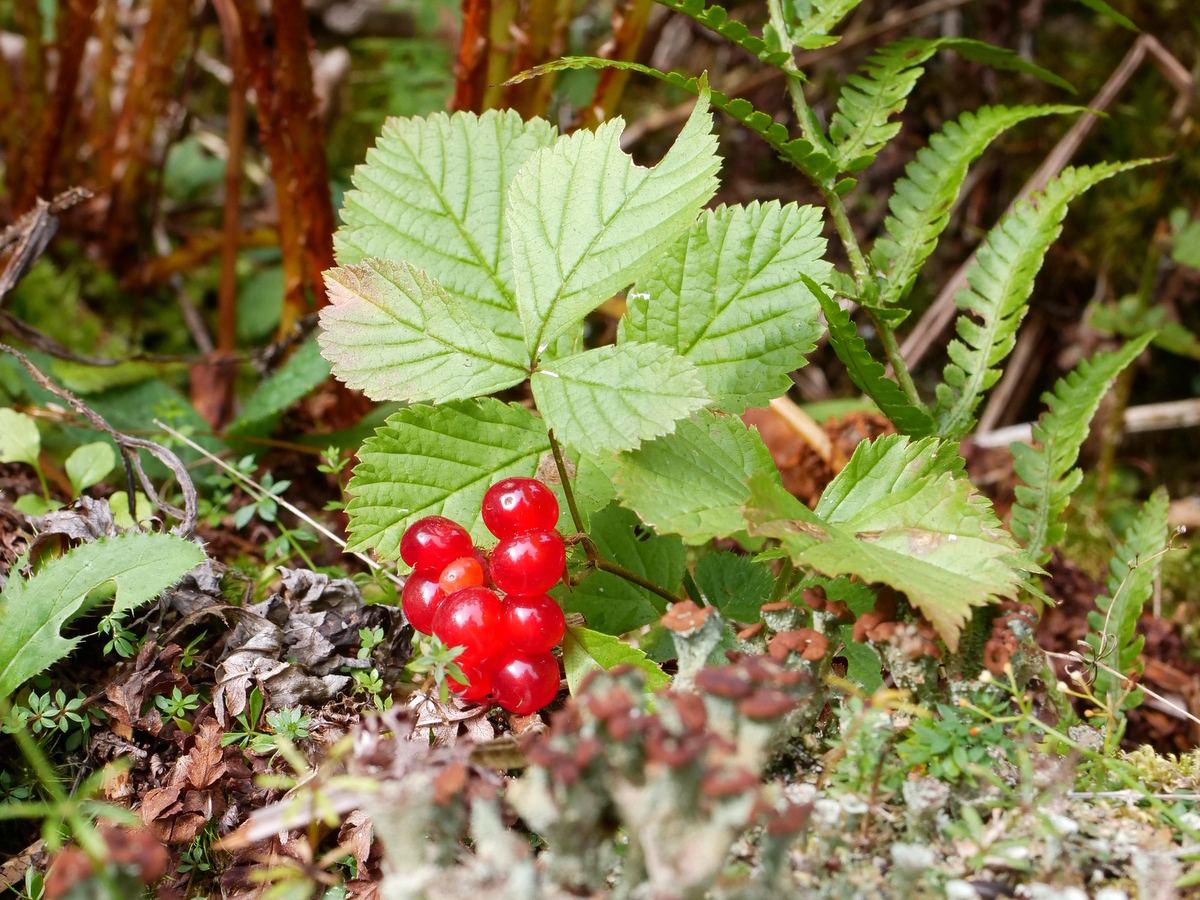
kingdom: Plantae
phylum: Tracheophyta
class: Magnoliopsida
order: Rosales
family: Rosaceae
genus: Rubus
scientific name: Rubus saxatilis
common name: Stone bramble
